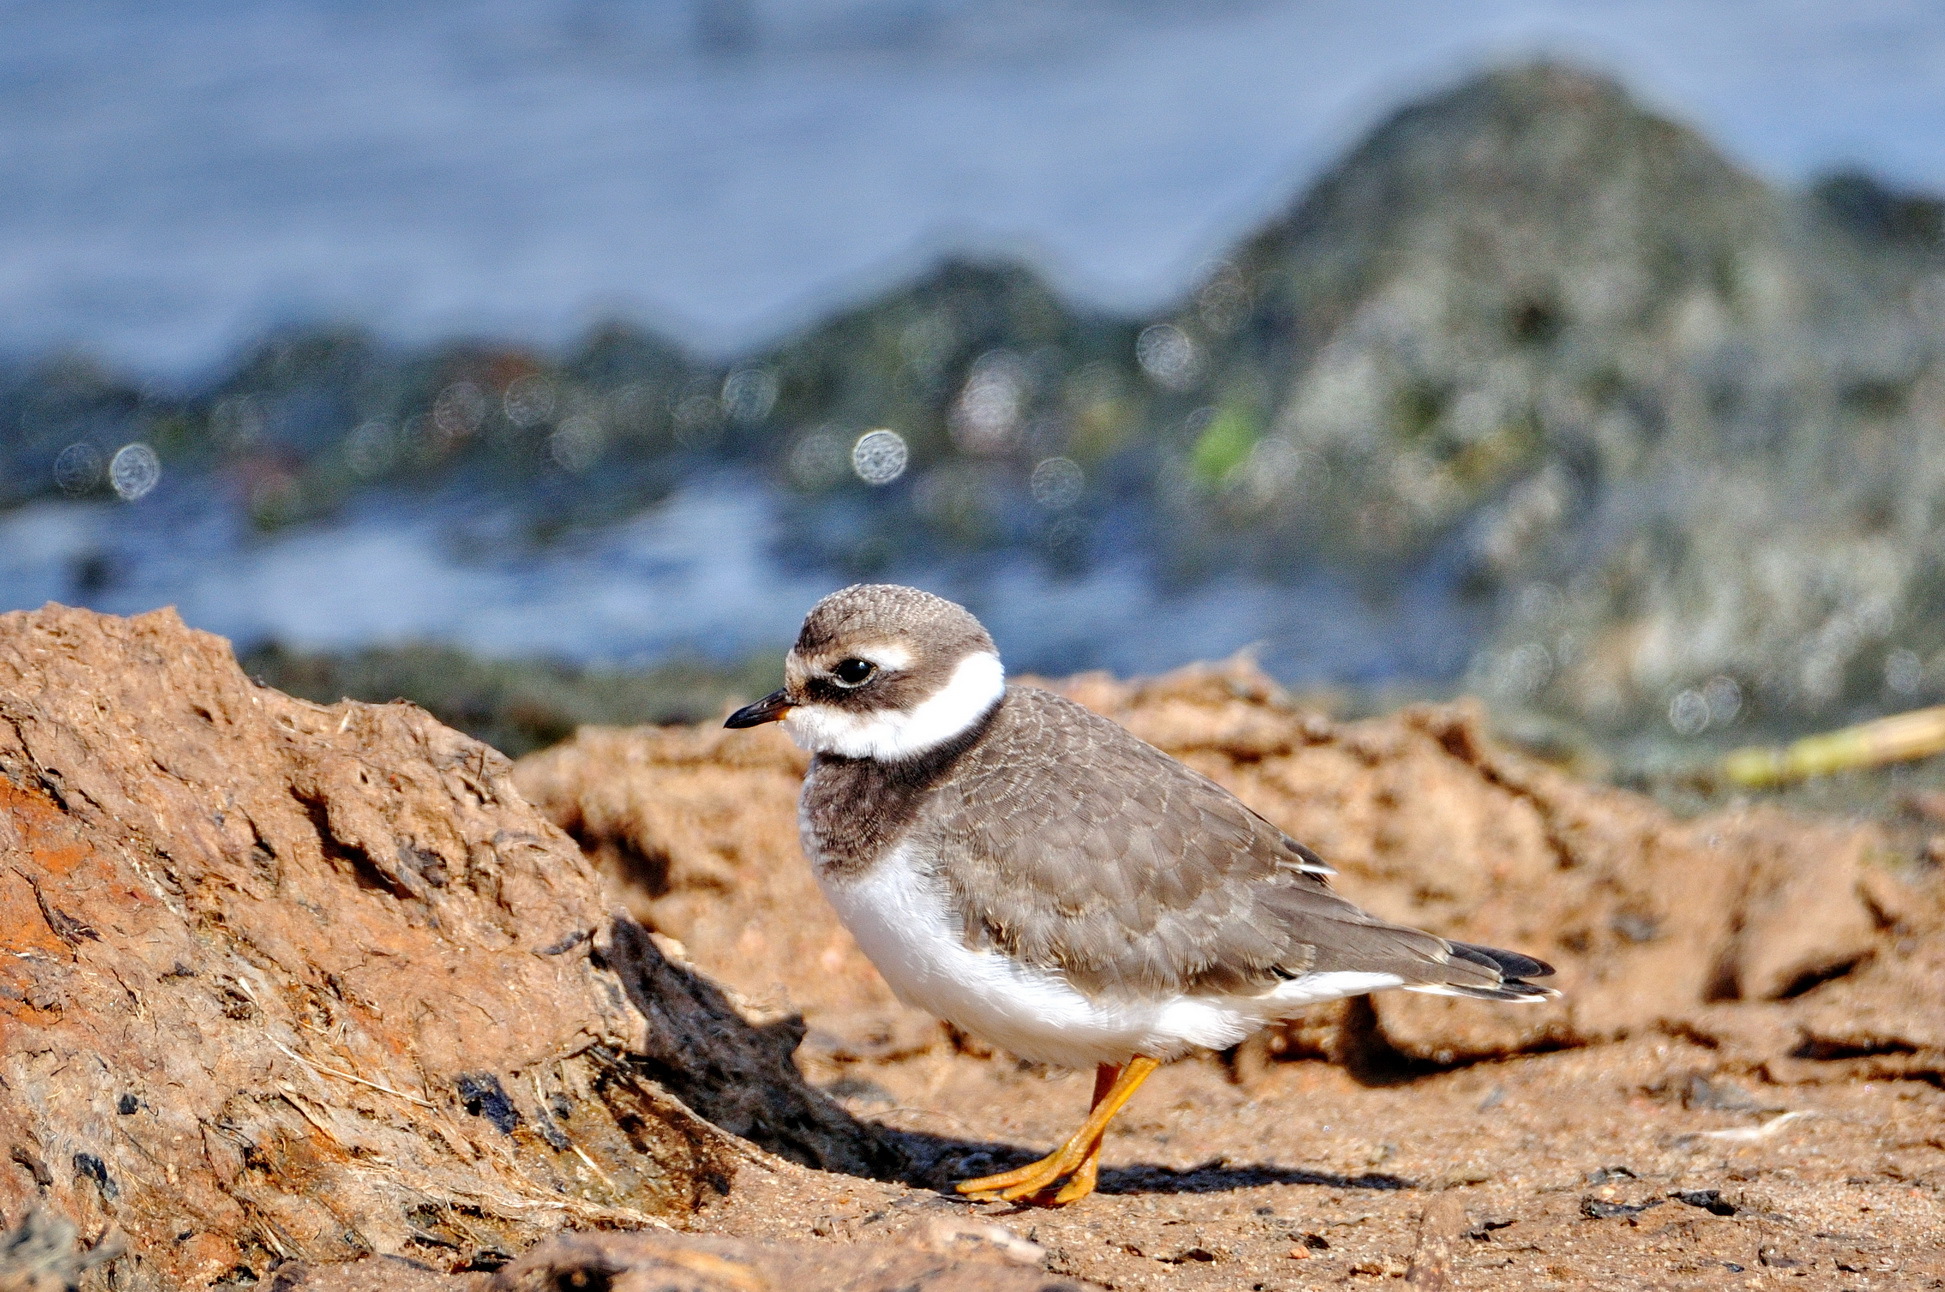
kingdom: Animalia
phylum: Chordata
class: Aves
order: Charadriiformes
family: Charadriidae
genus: Charadrius
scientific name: Charadrius hiaticula
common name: Common ringed plover
